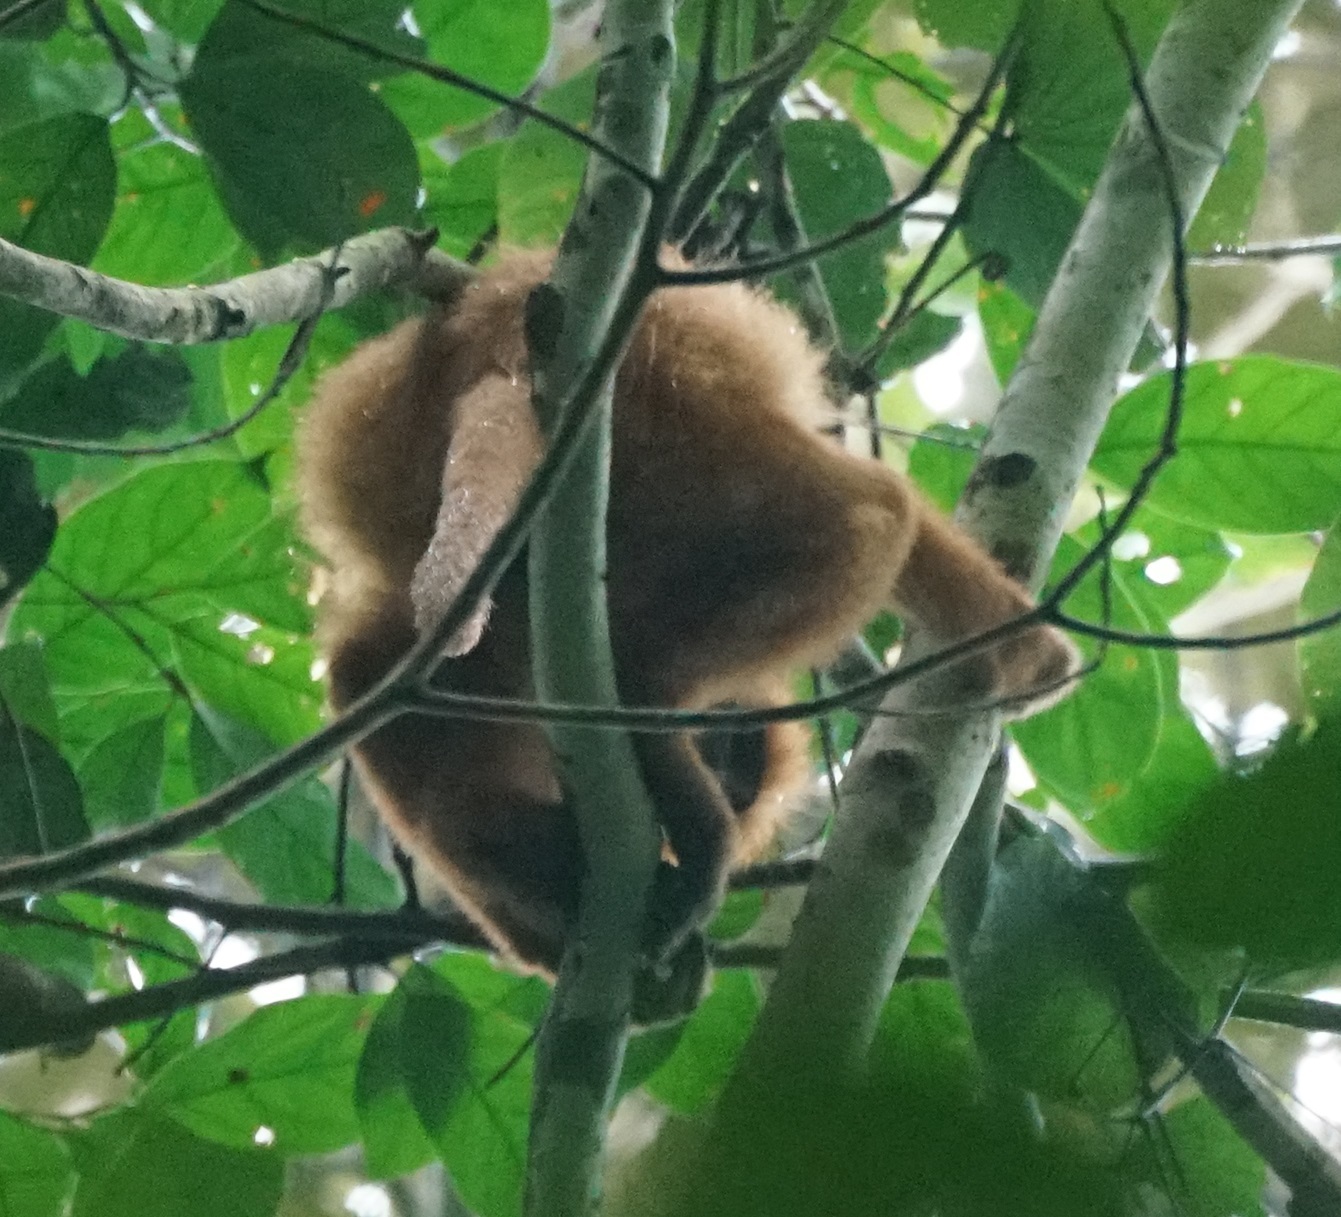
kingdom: Animalia
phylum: Chordata
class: Mammalia
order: Primates
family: Cercopithecidae
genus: Presbytis
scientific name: Presbytis rubicunda
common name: Maroon leaf monkey
